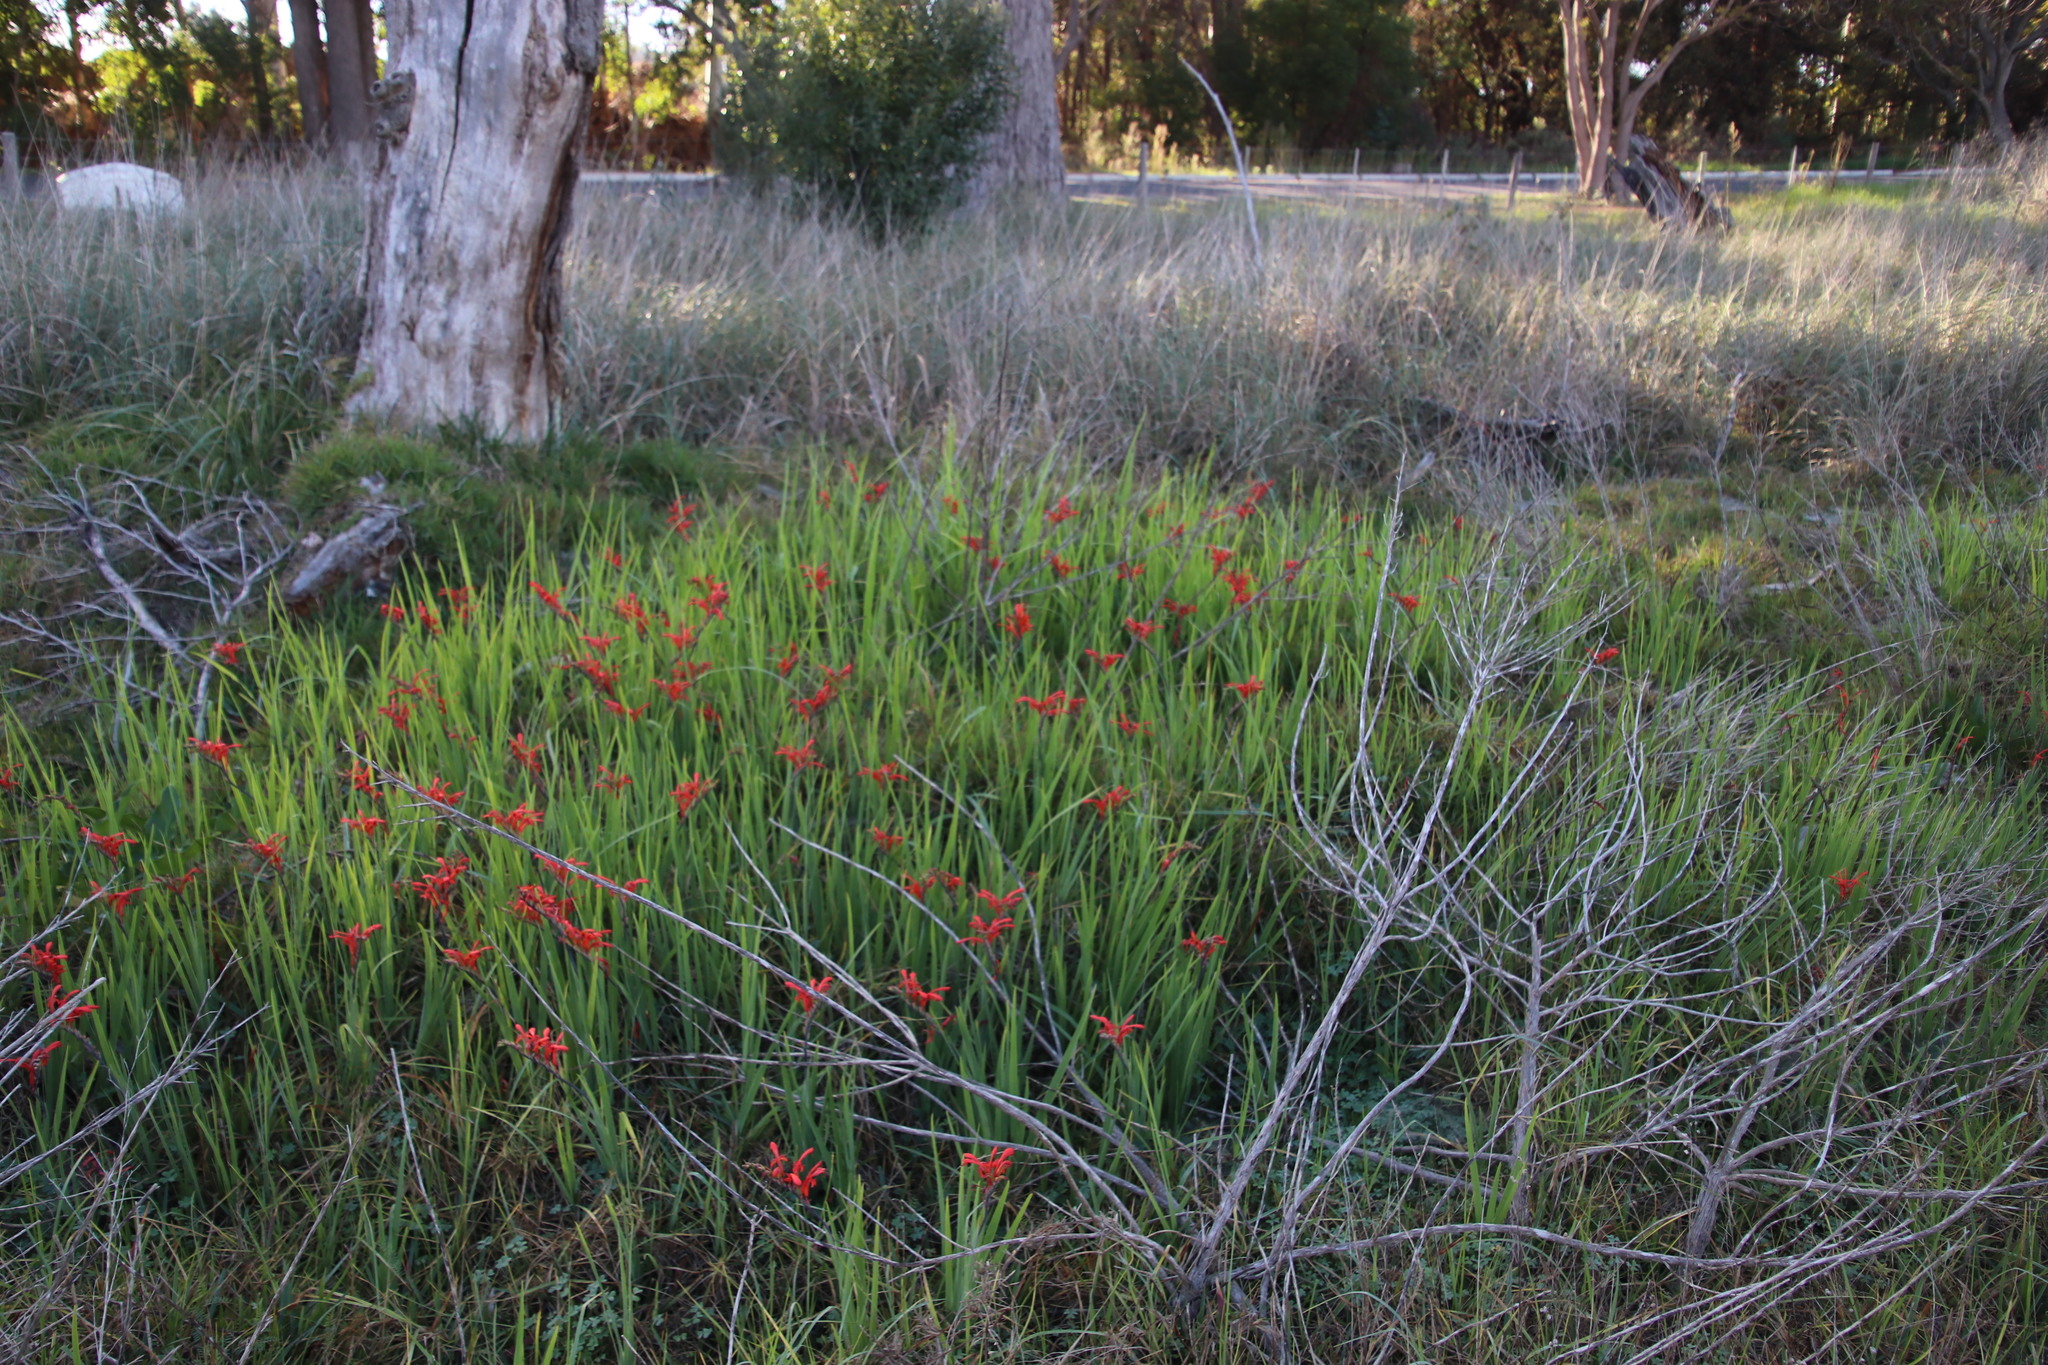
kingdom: Plantae
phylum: Tracheophyta
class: Liliopsida
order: Asparagales
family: Iridaceae
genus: Chasmanthe
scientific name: Chasmanthe aethiopica
